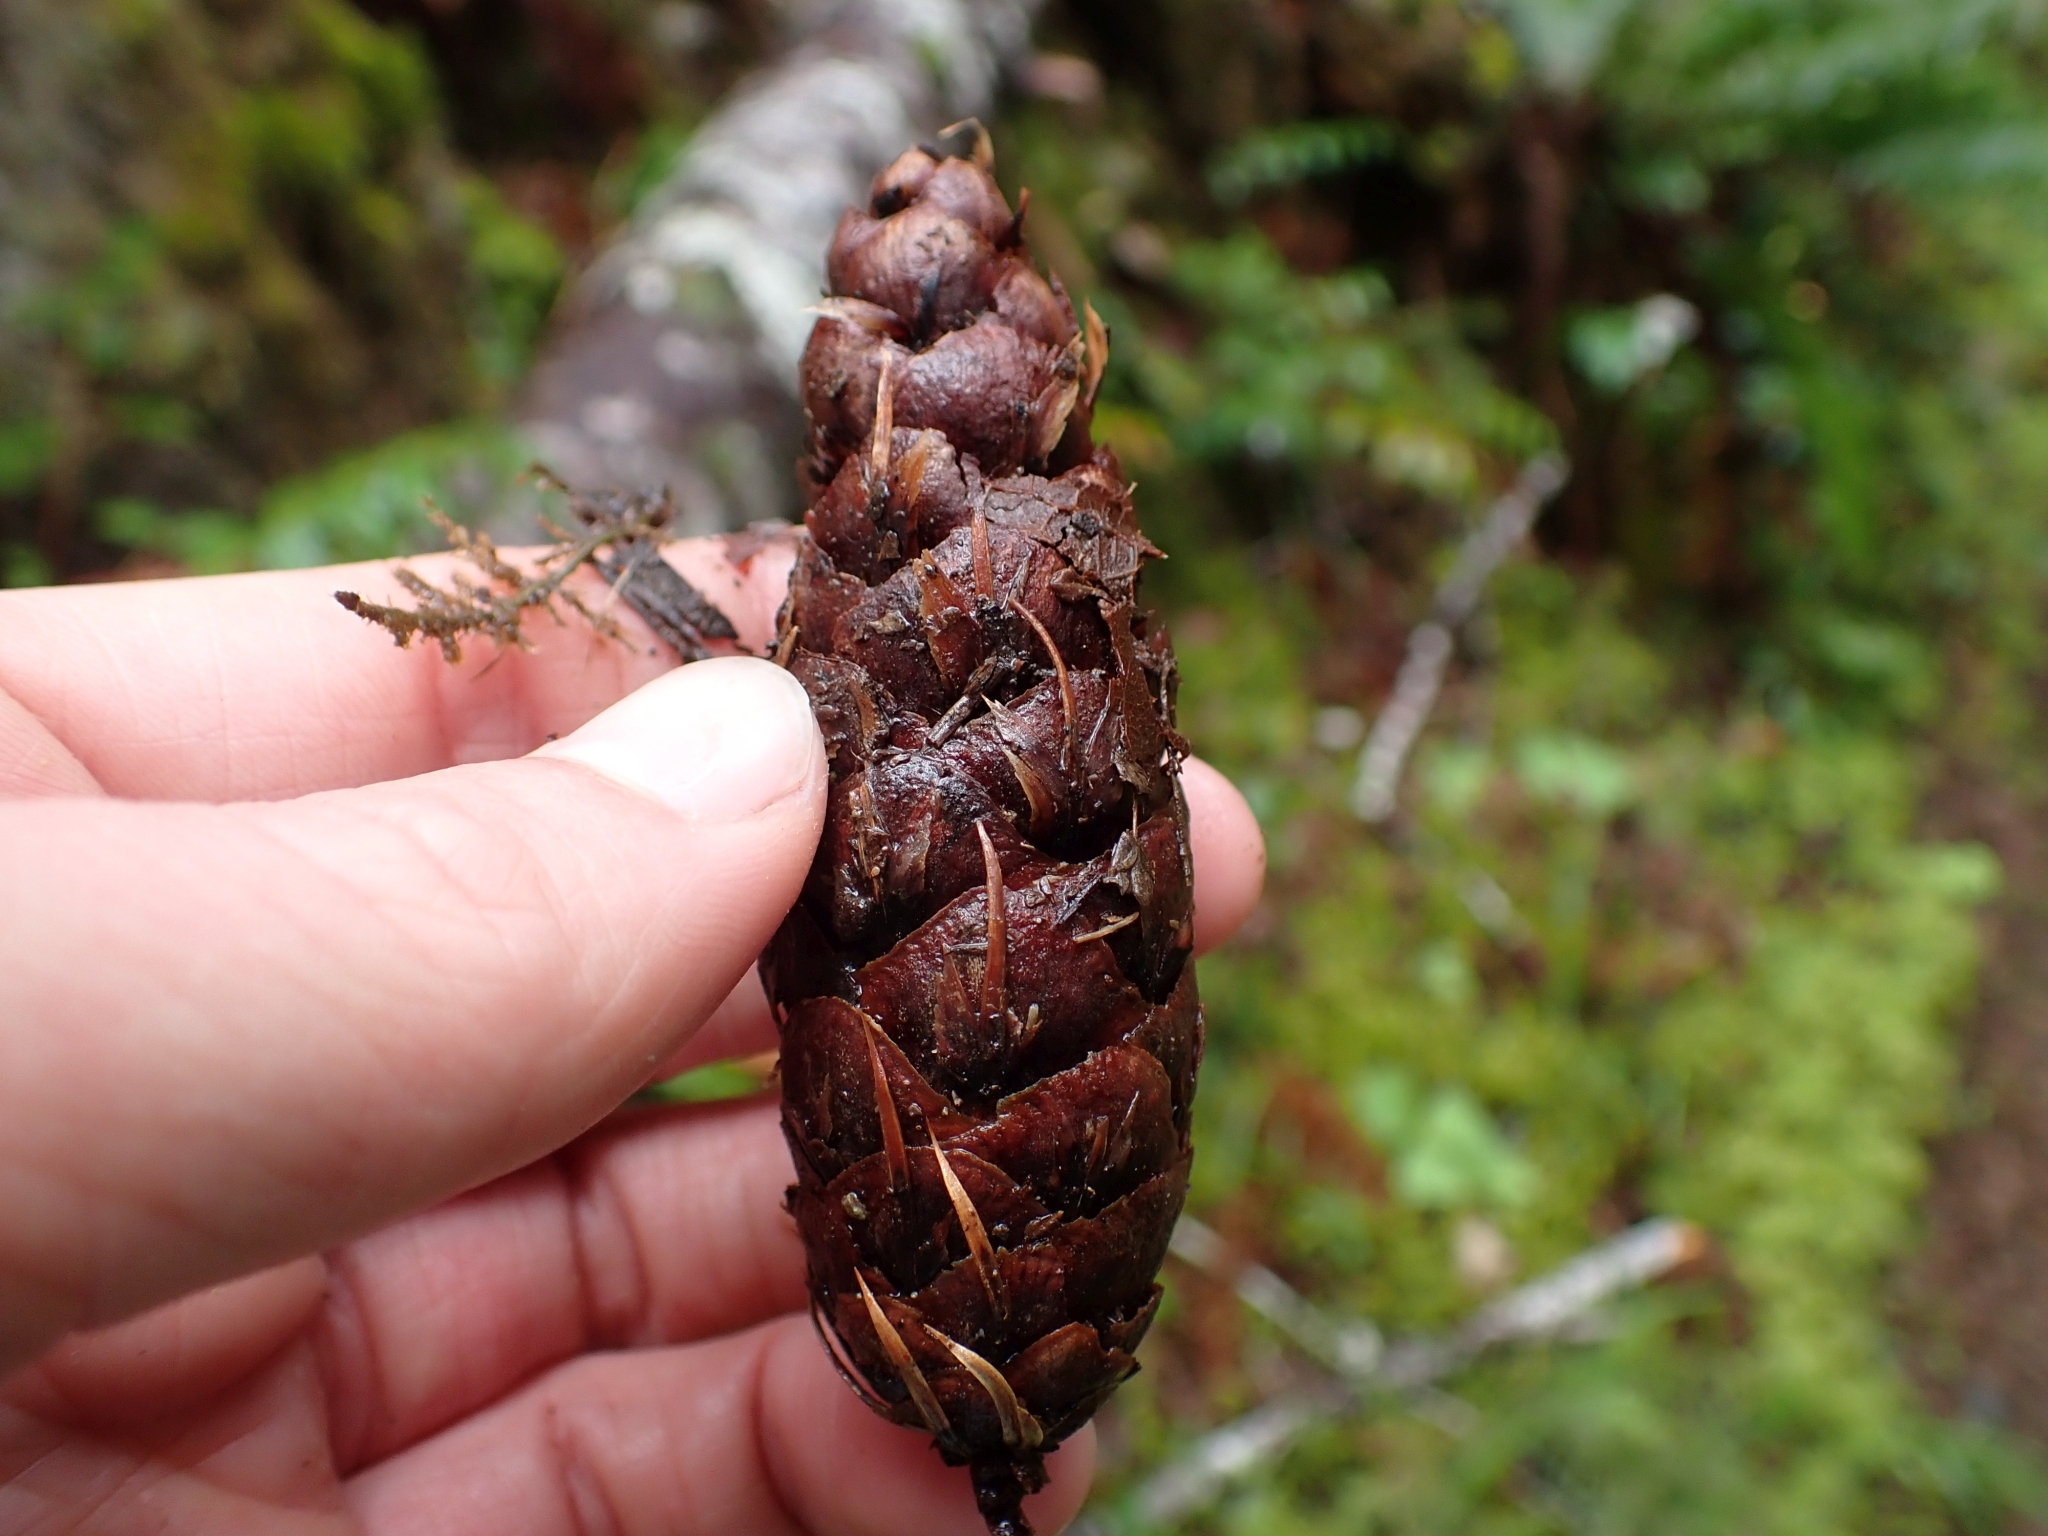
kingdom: Plantae
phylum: Tracheophyta
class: Pinopsida
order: Pinales
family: Pinaceae
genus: Pseudotsuga
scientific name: Pseudotsuga menziesii
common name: Douglas fir
